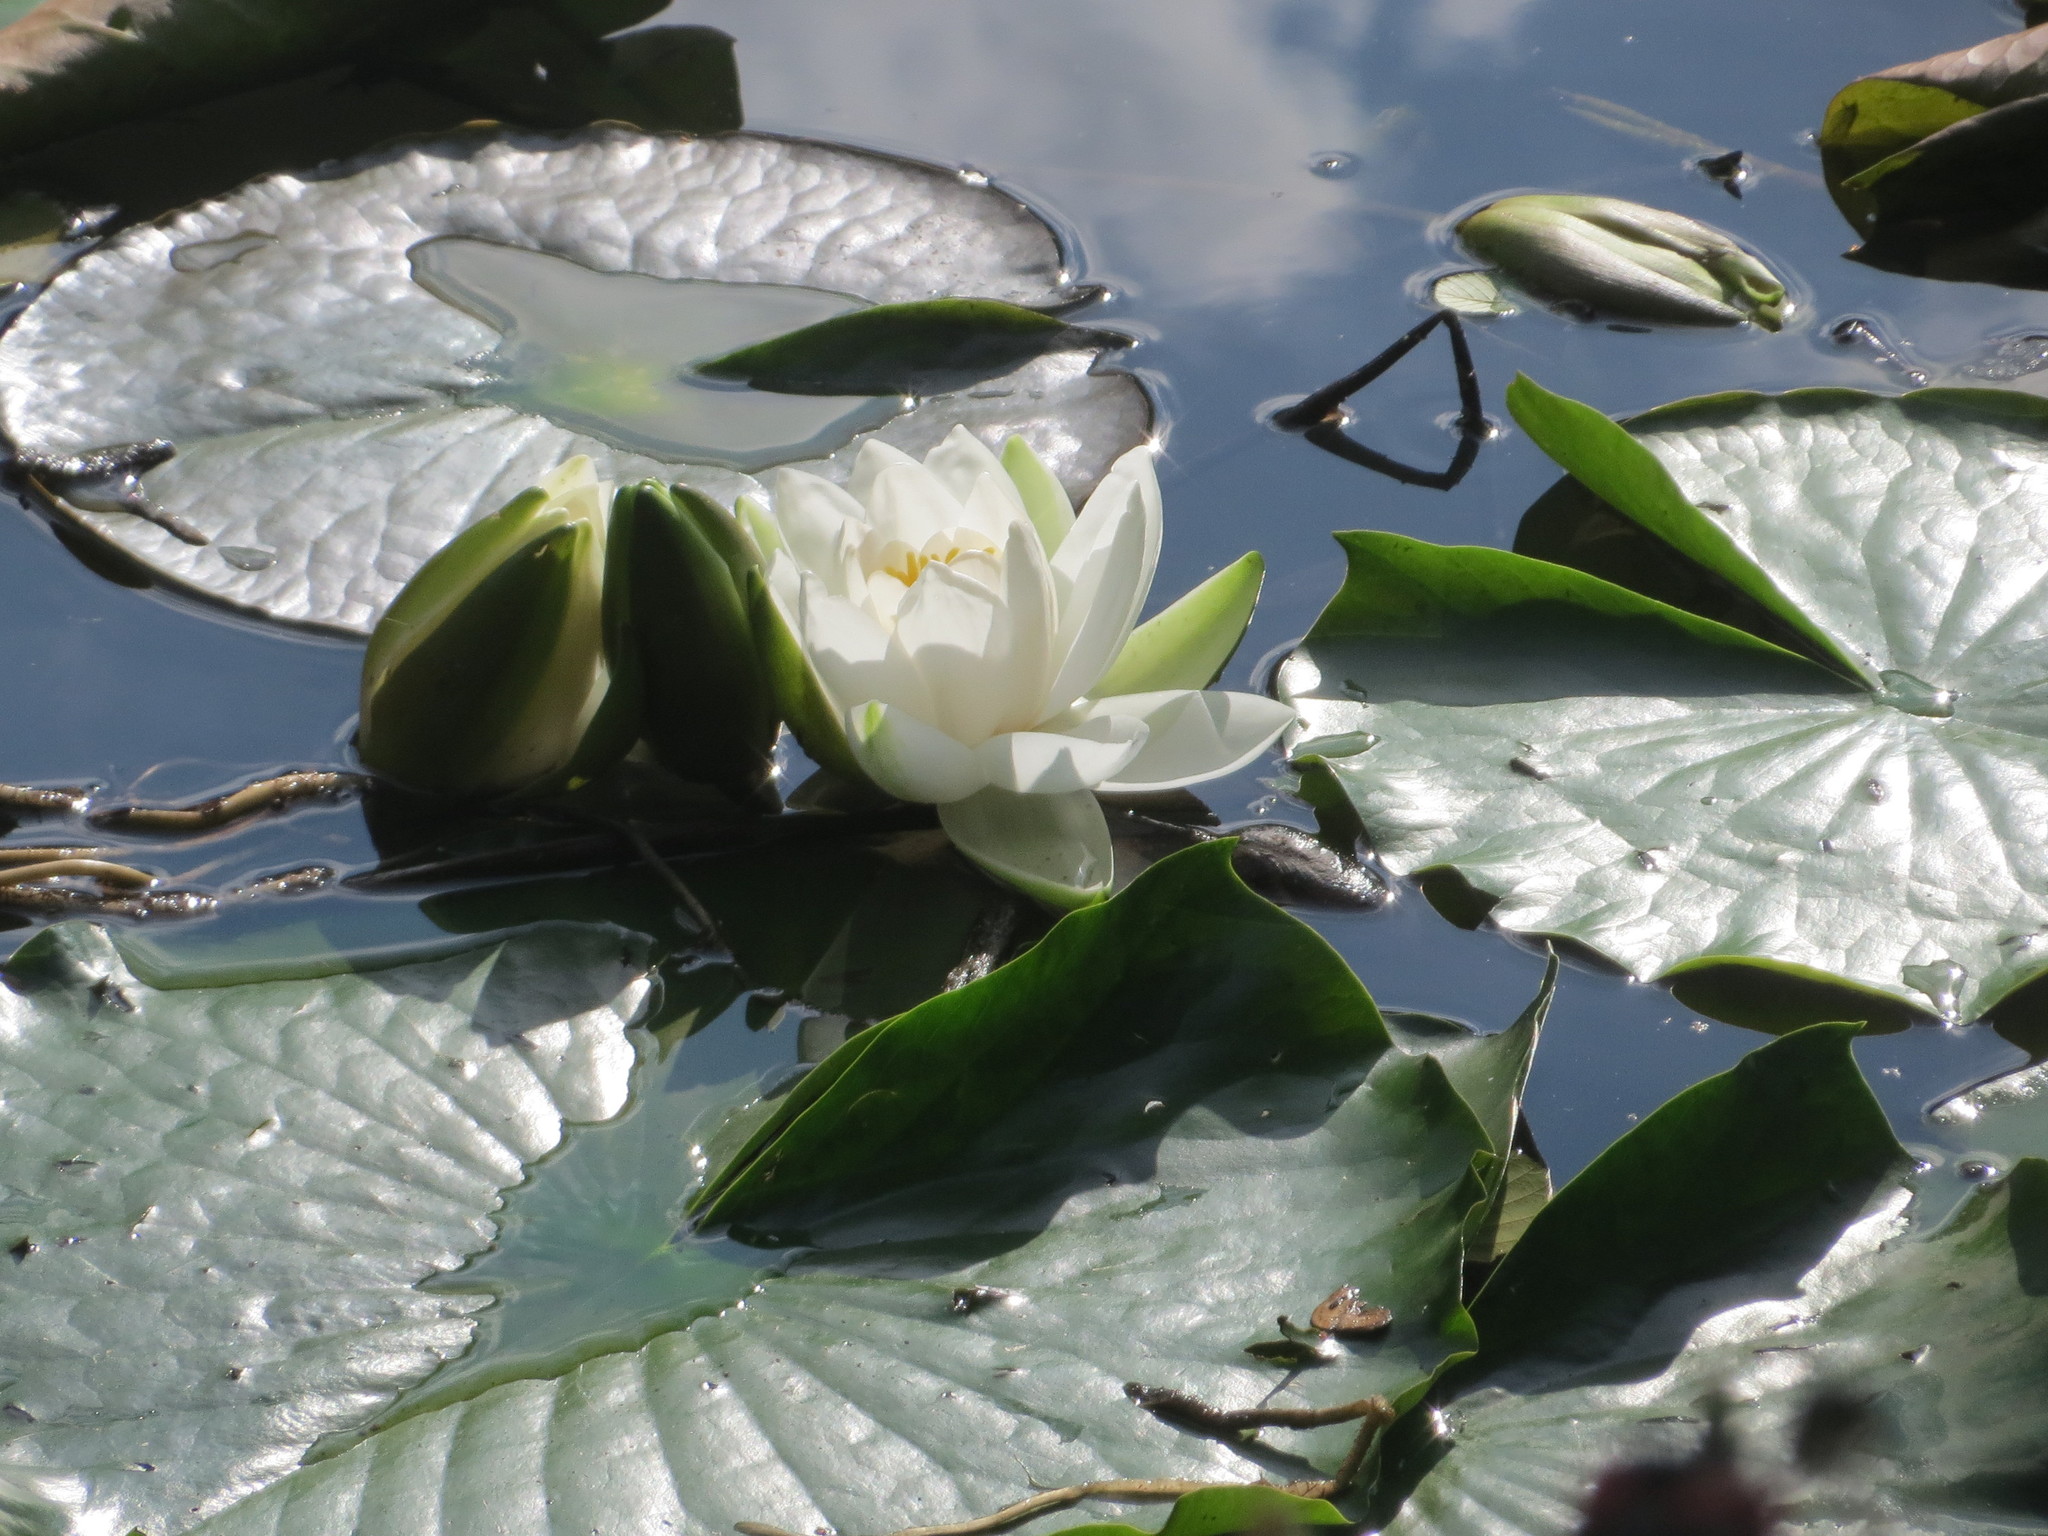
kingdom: Plantae
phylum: Tracheophyta
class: Magnoliopsida
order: Nymphaeales
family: Nymphaeaceae
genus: Nymphaea
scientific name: Nymphaea alba
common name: White water-lily
